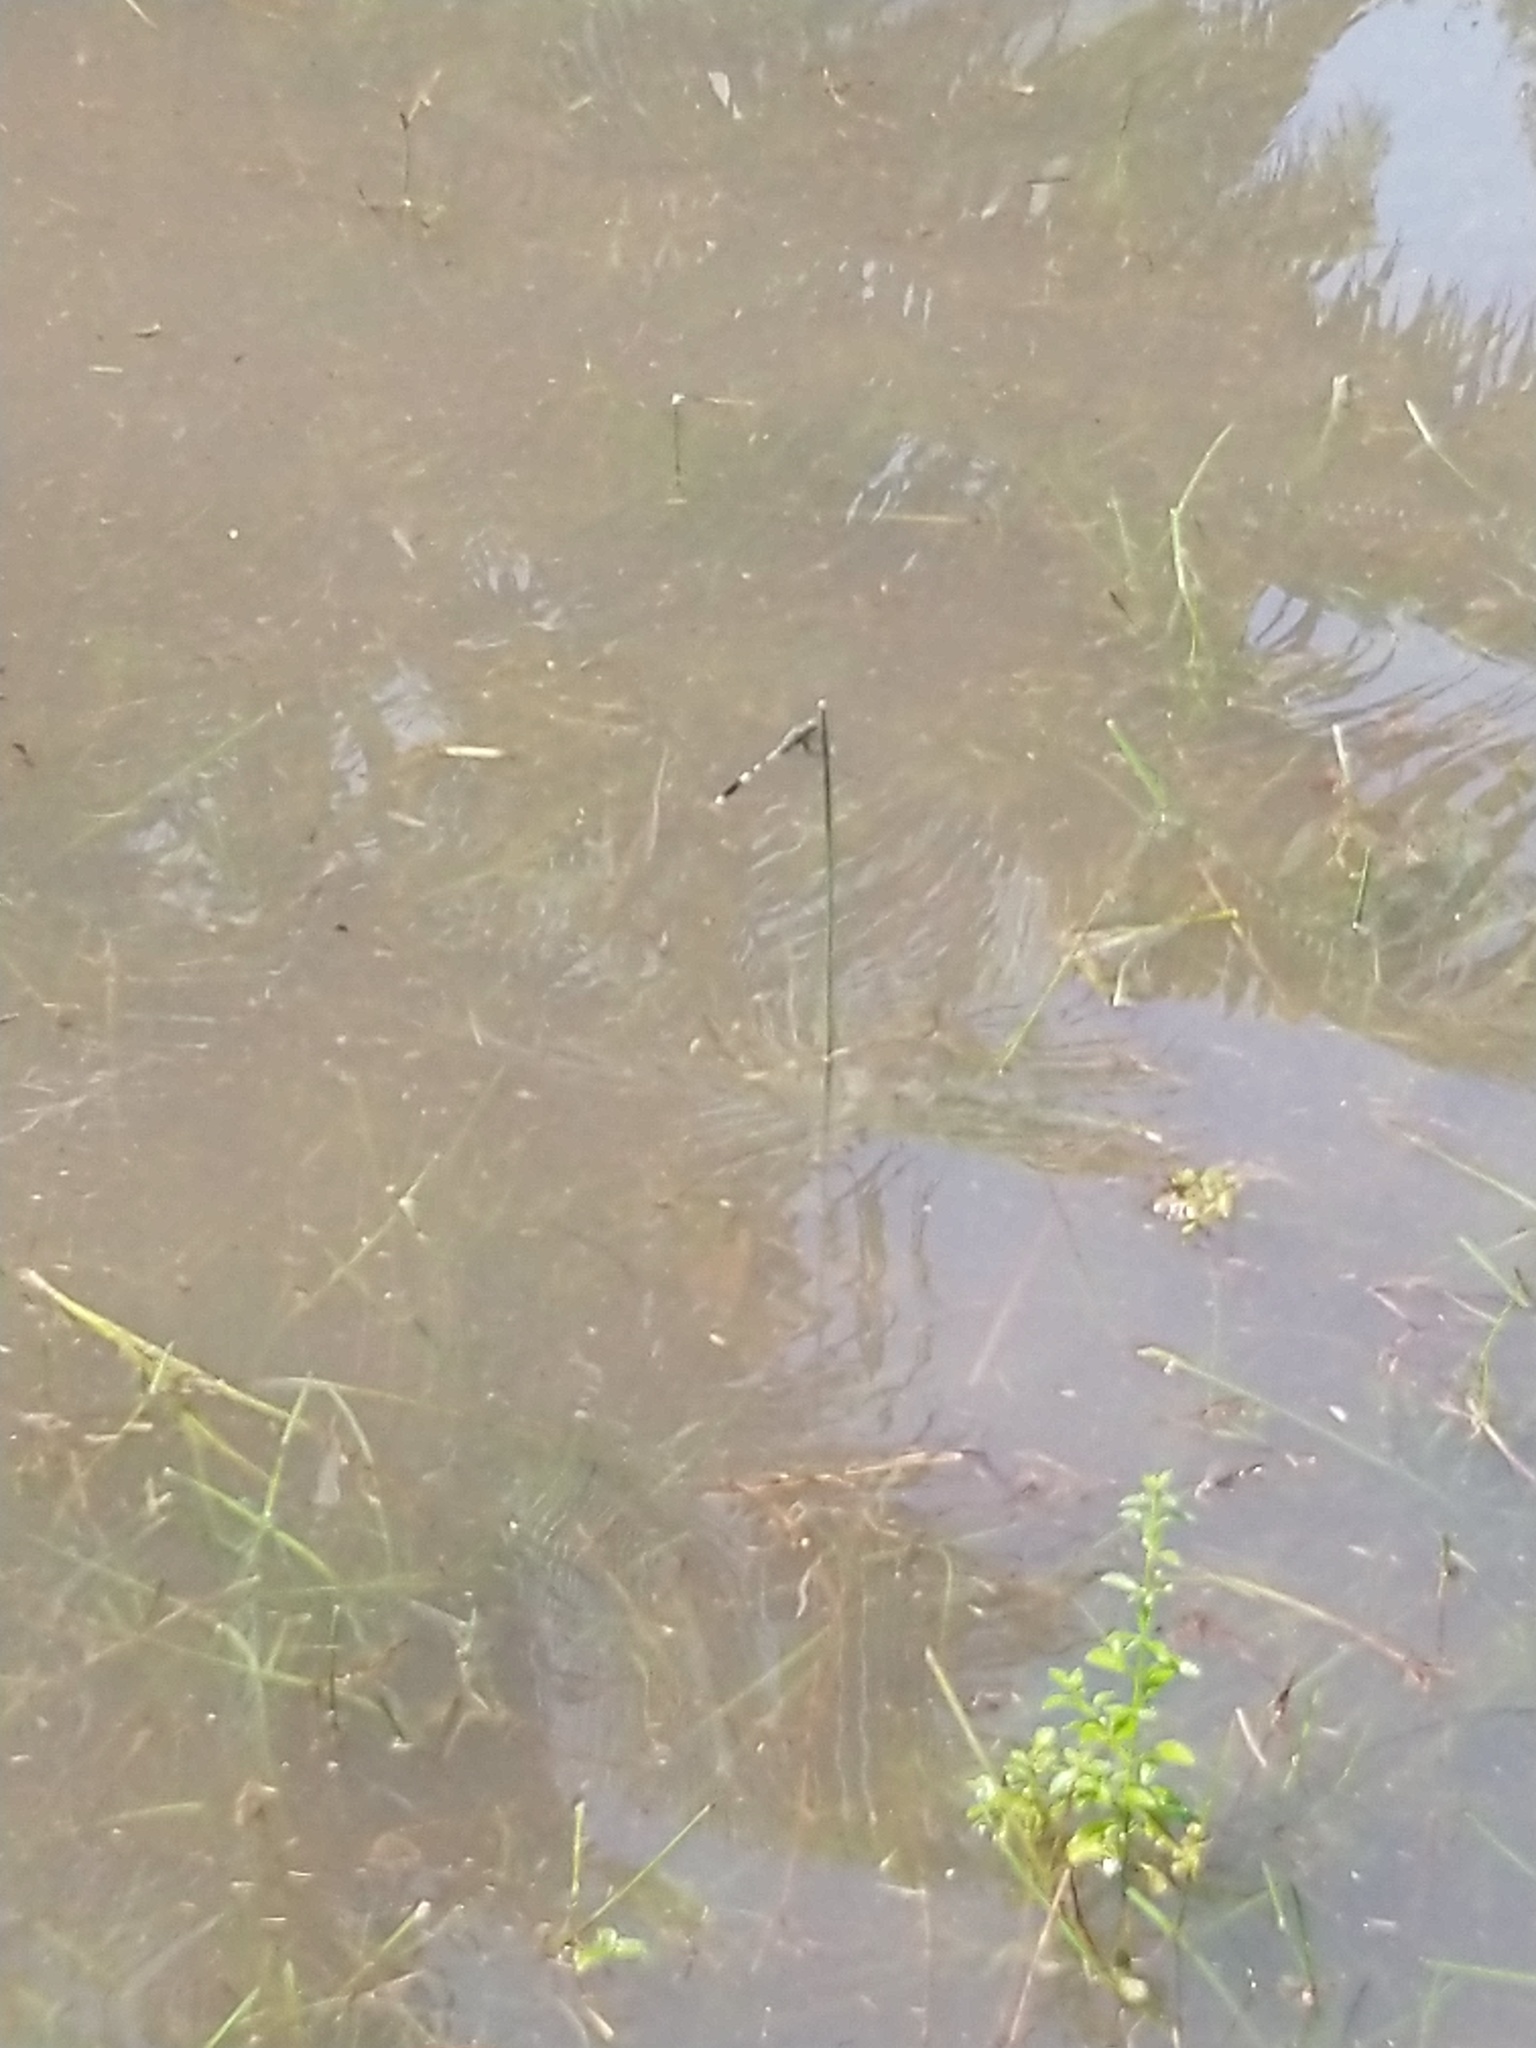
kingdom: Animalia
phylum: Arthropoda
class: Insecta
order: Odonata
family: Libellulidae
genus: Orthetrum
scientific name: Orthetrum sabina
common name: Slender skimmer
